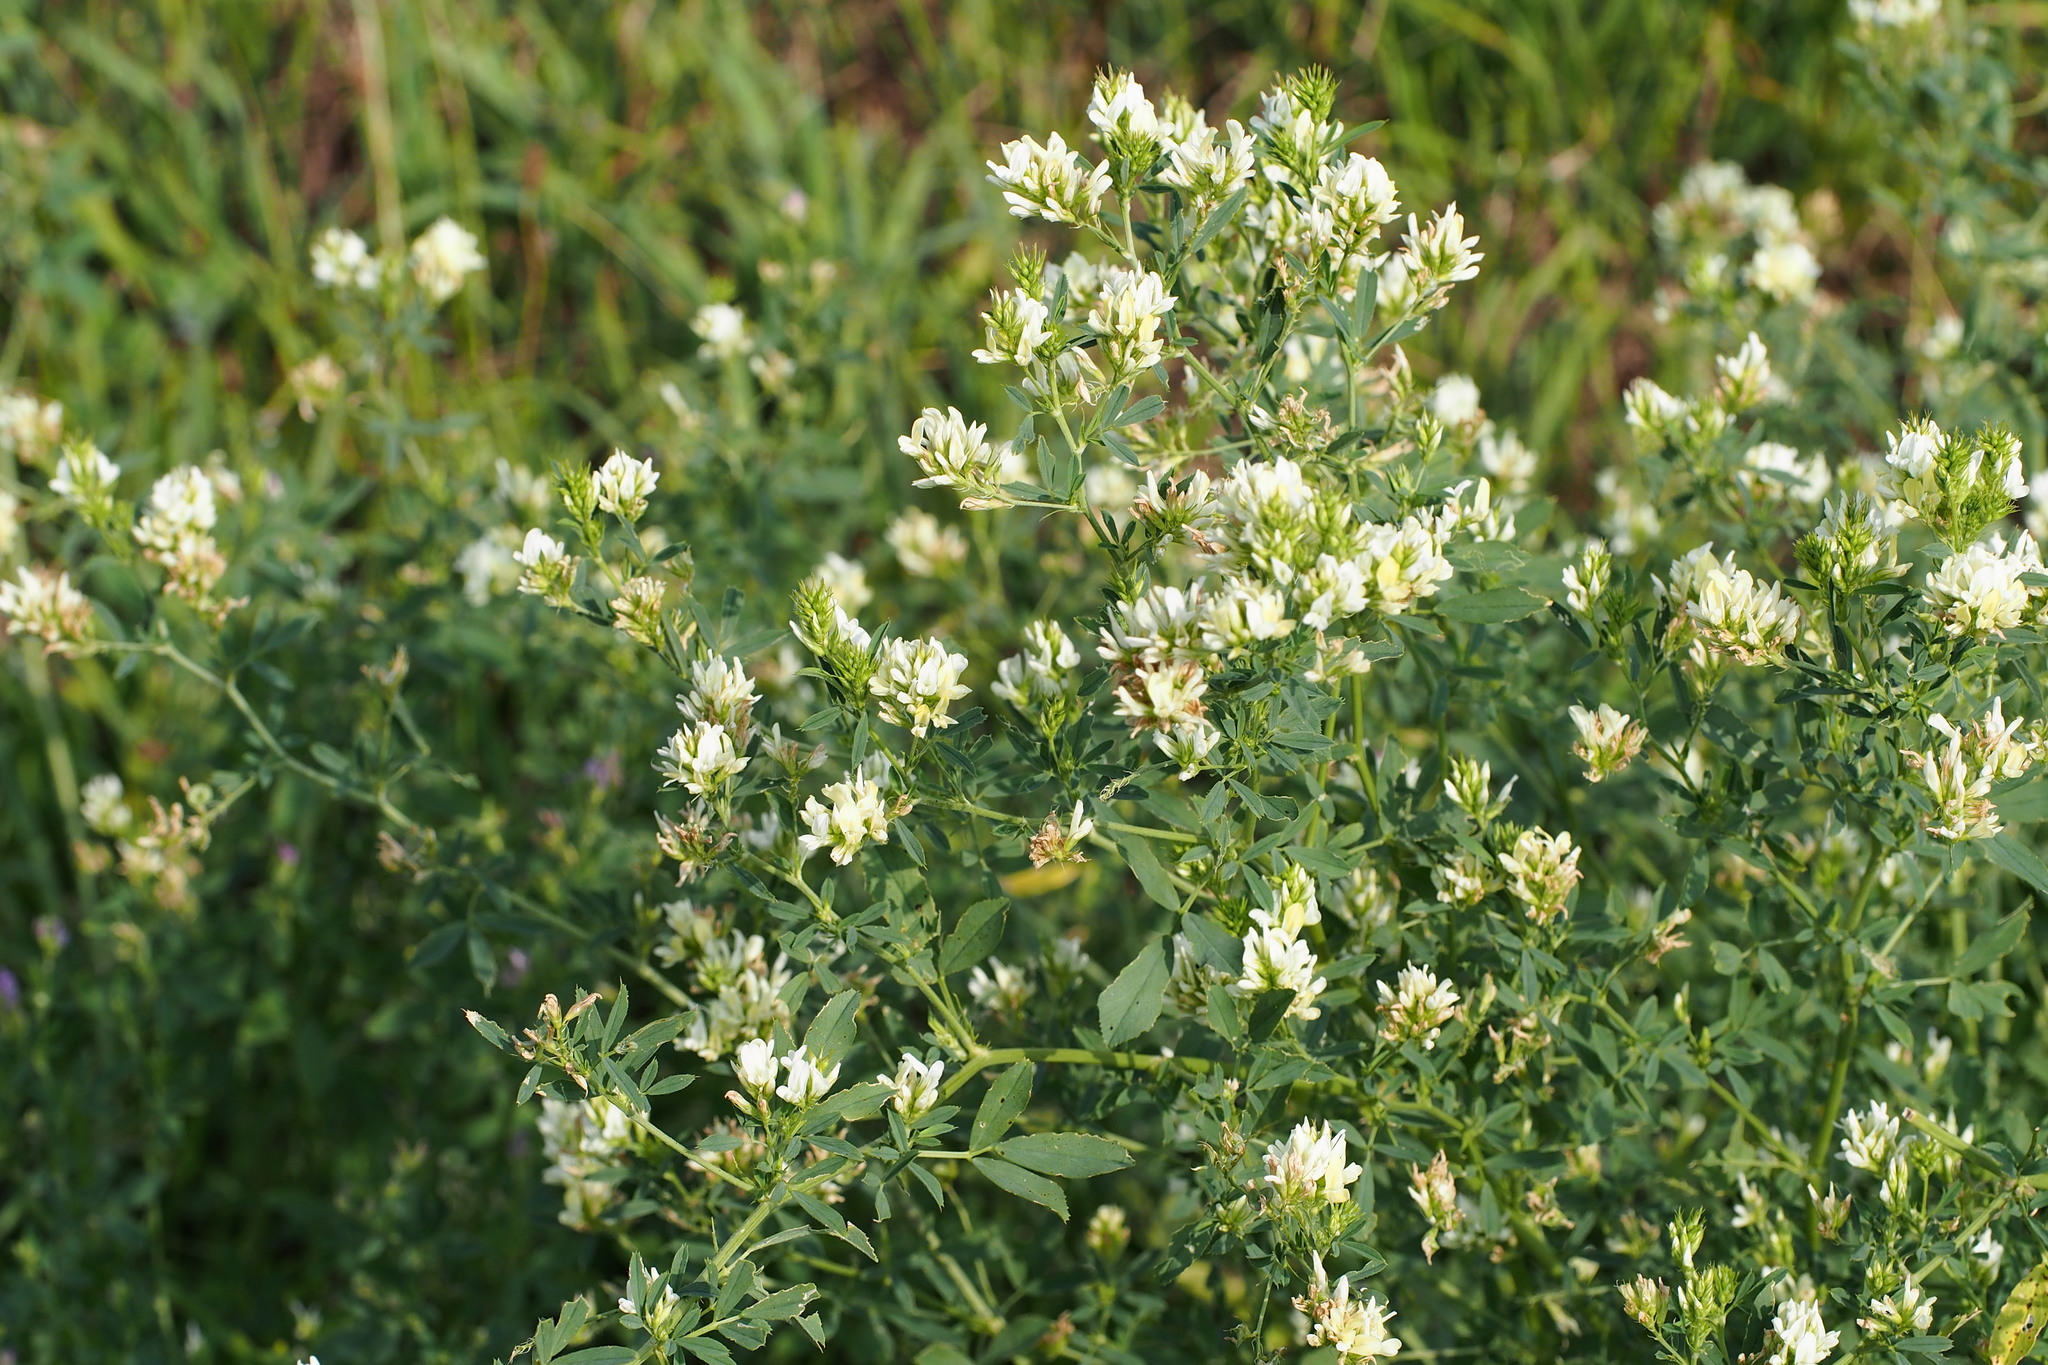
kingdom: Plantae
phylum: Tracheophyta
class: Magnoliopsida
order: Fabales
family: Fabaceae
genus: Medicago
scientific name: Medicago sativa
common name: Alfalfa
